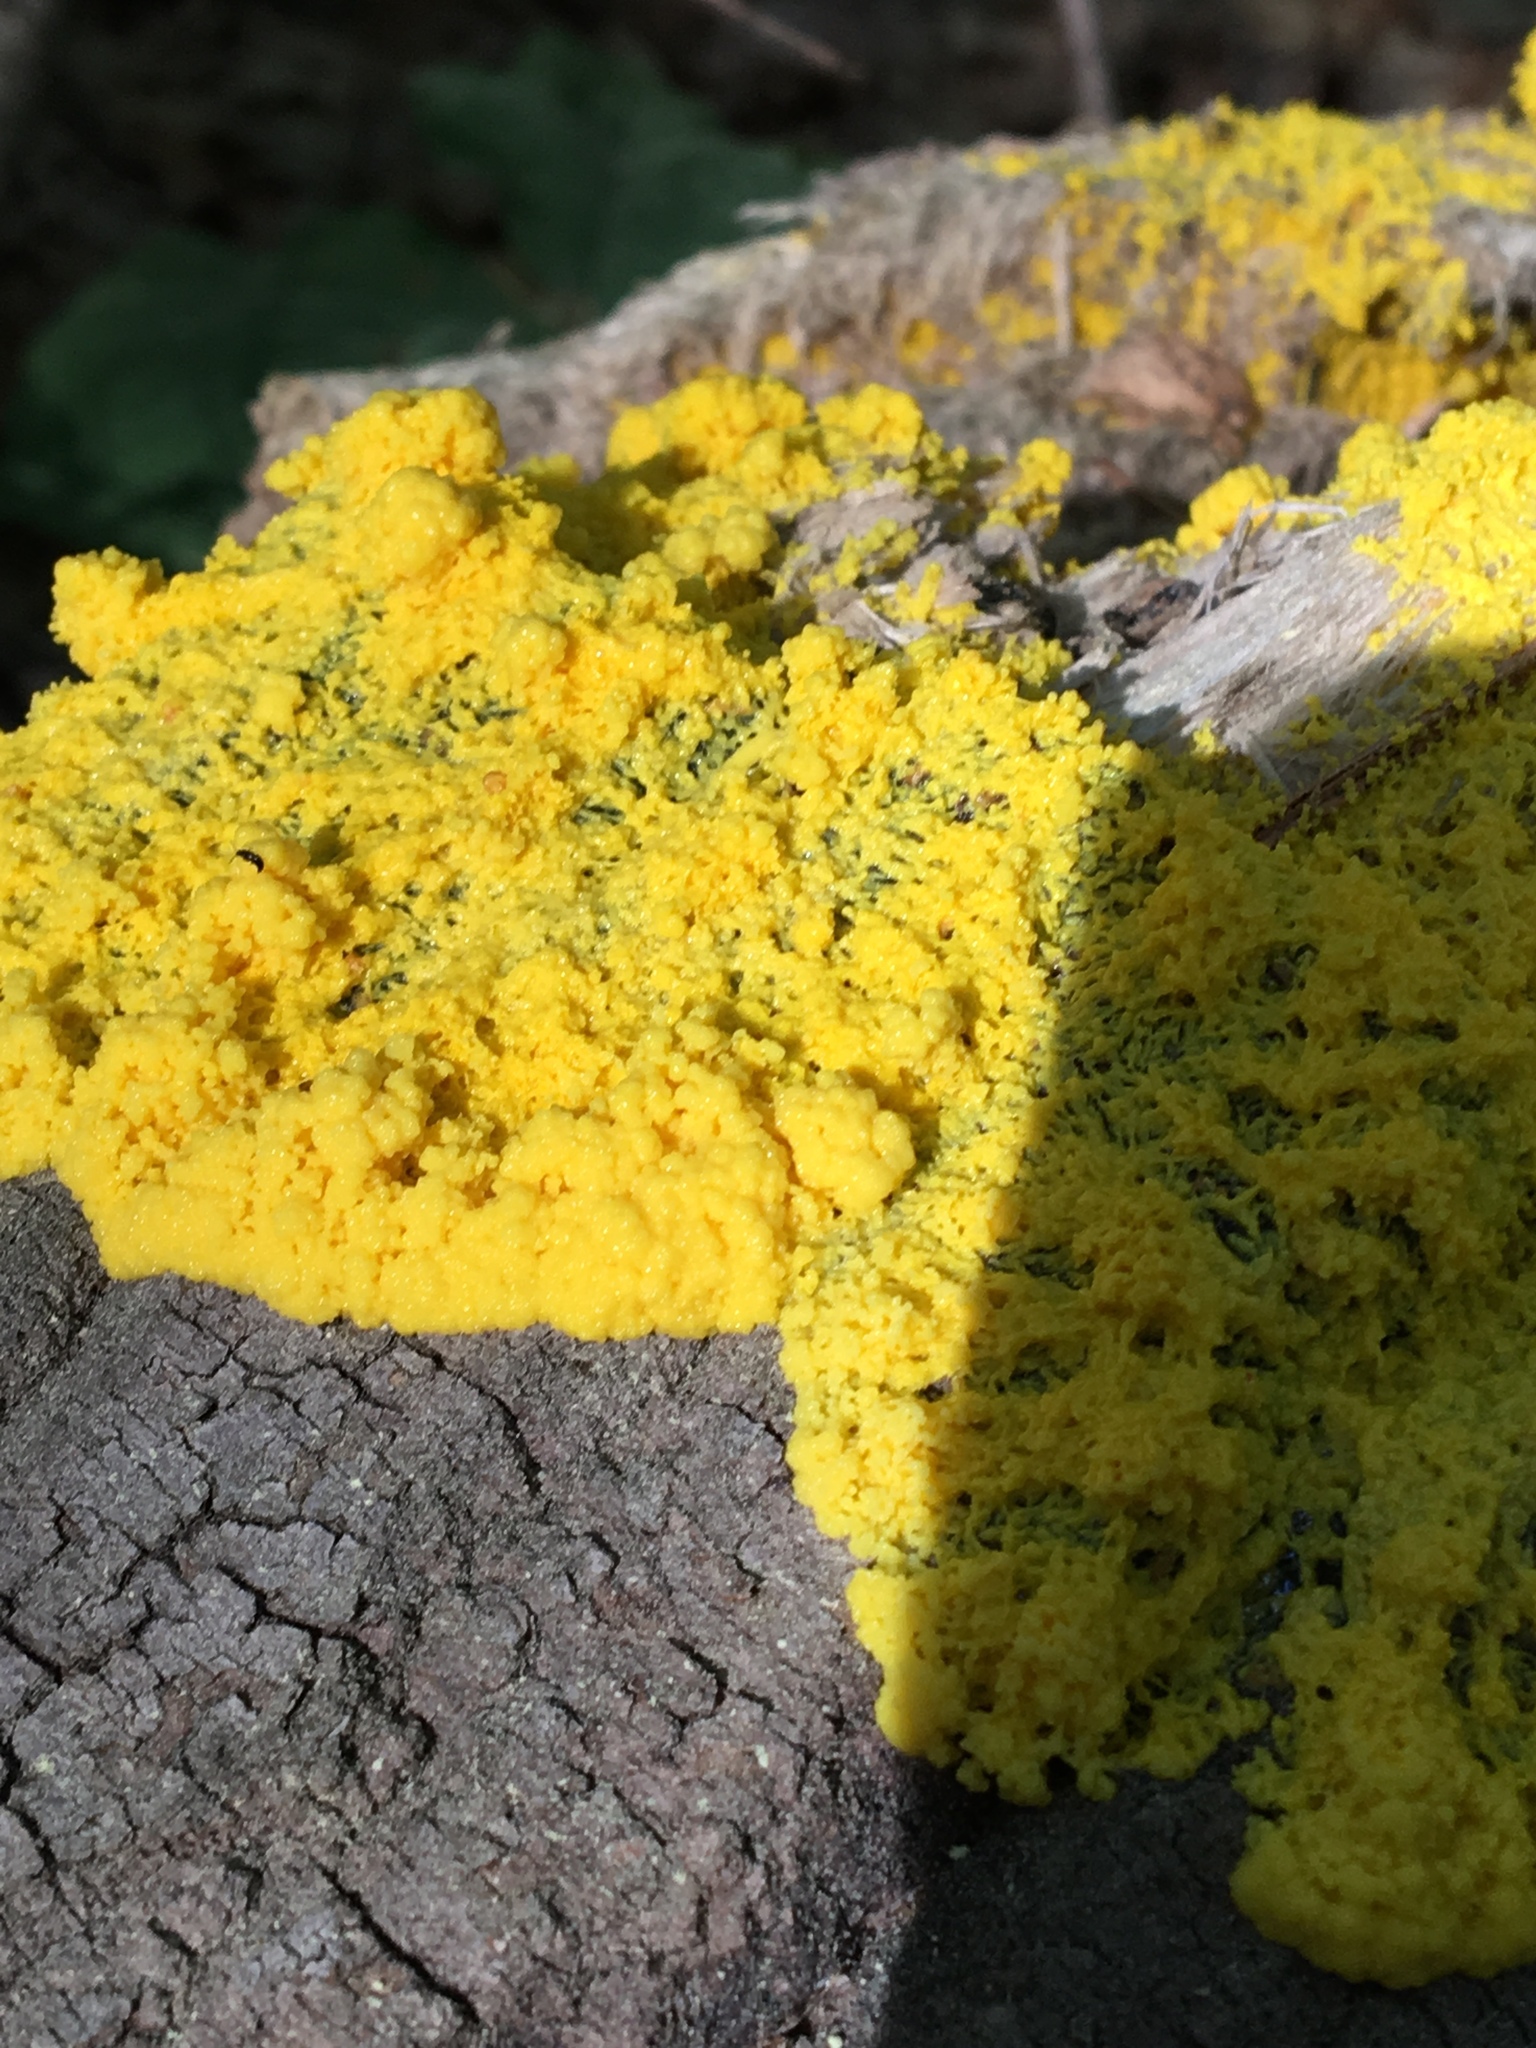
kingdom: Protozoa
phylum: Mycetozoa
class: Myxomycetes
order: Physarales
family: Physaraceae
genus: Fuligo
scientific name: Fuligo septica
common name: Dog vomit slime mold
